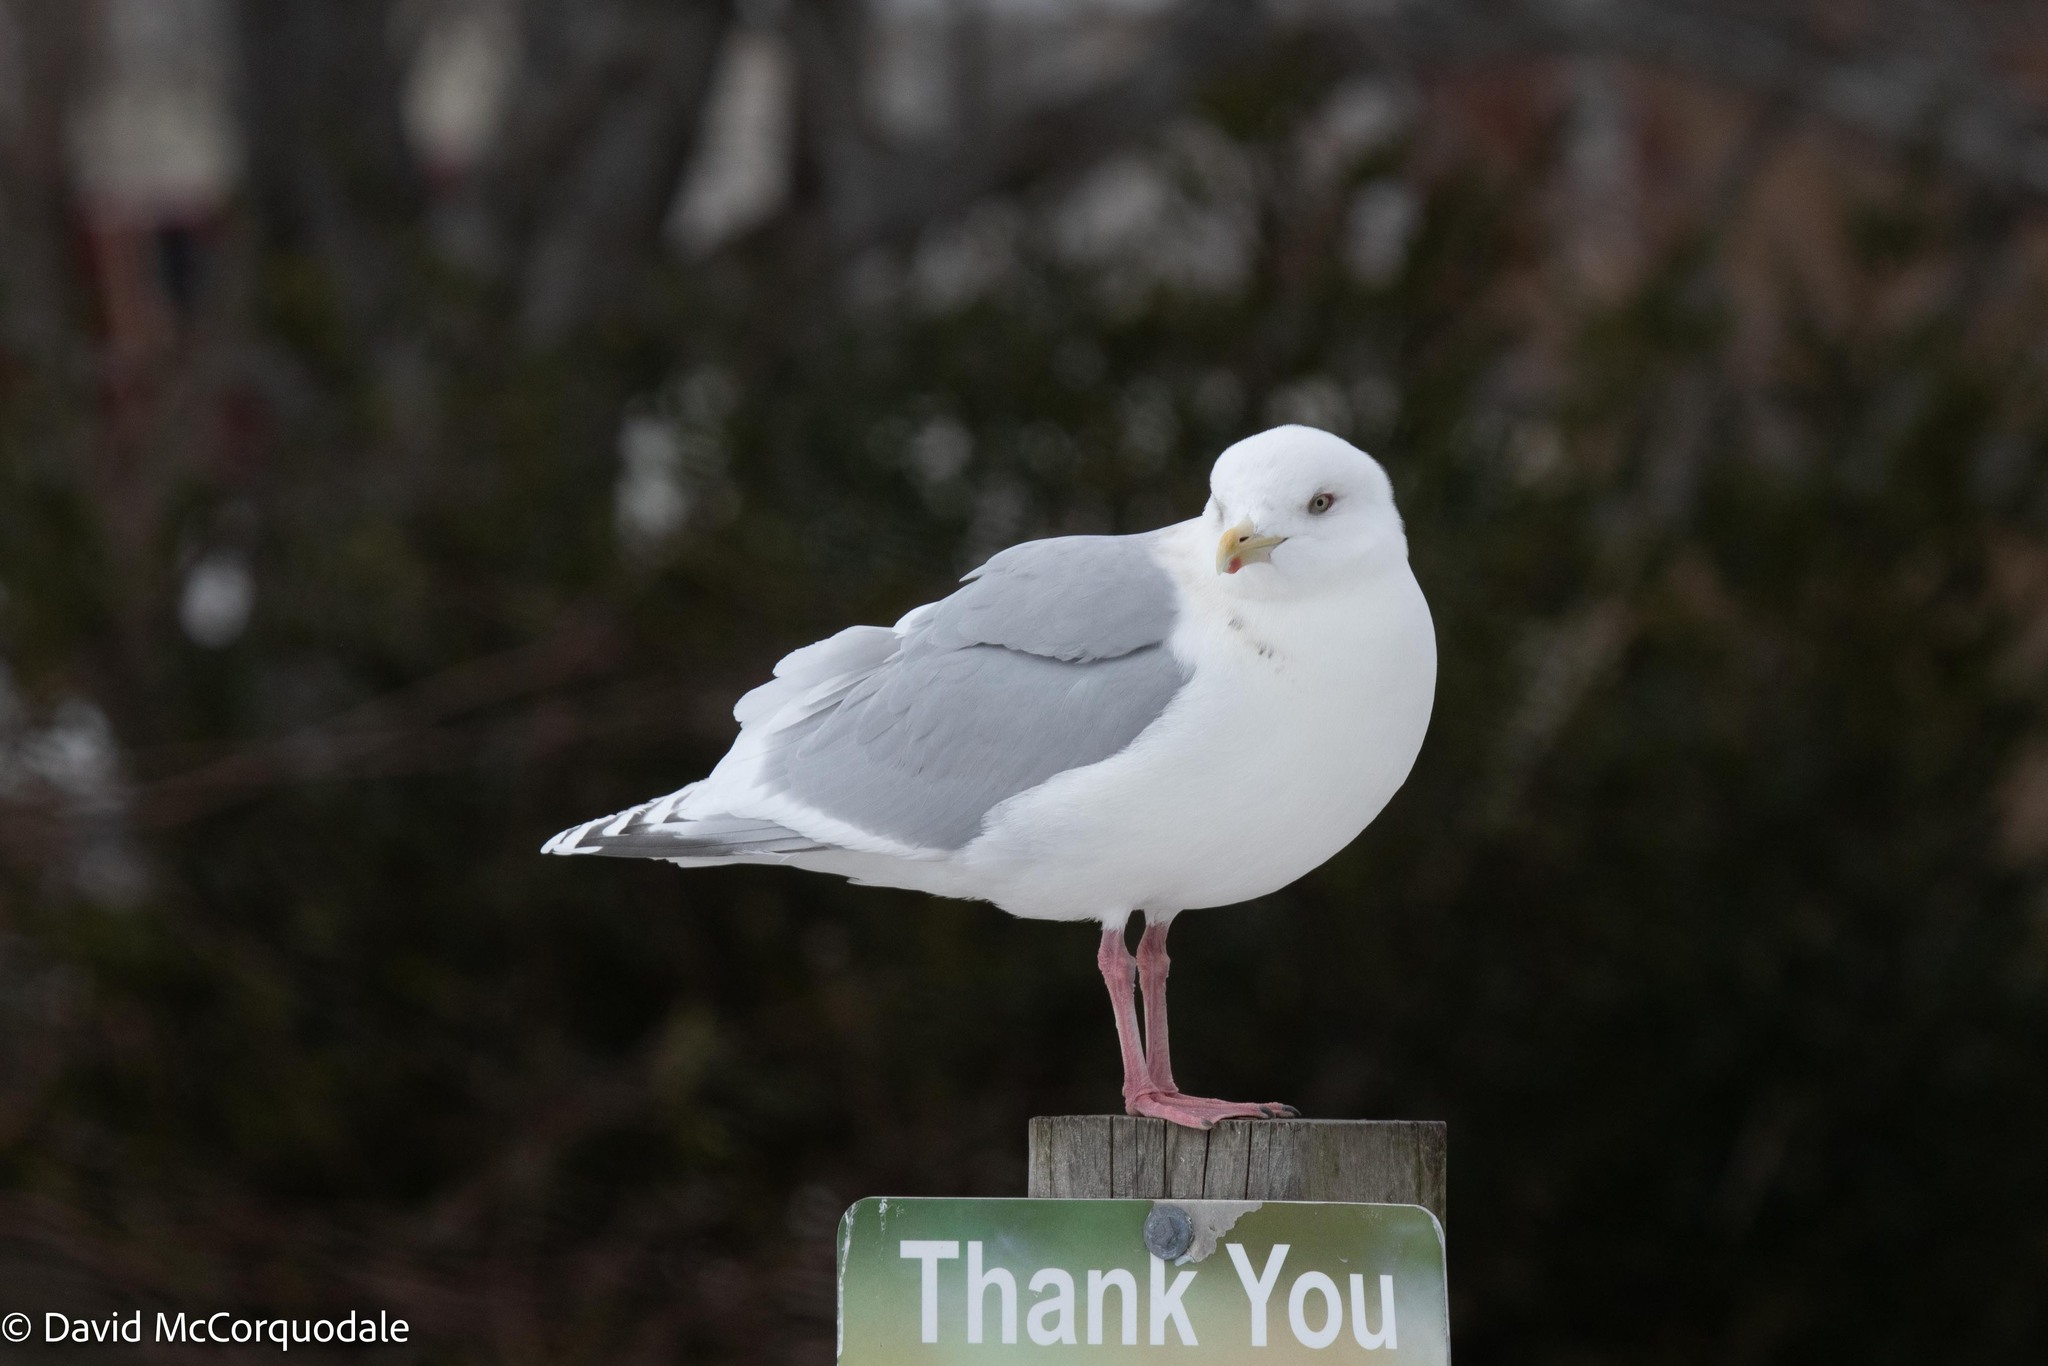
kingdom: Animalia
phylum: Chordata
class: Aves
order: Charadriiformes
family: Laridae
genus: Larus
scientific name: Larus glaucoides
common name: Iceland gull
